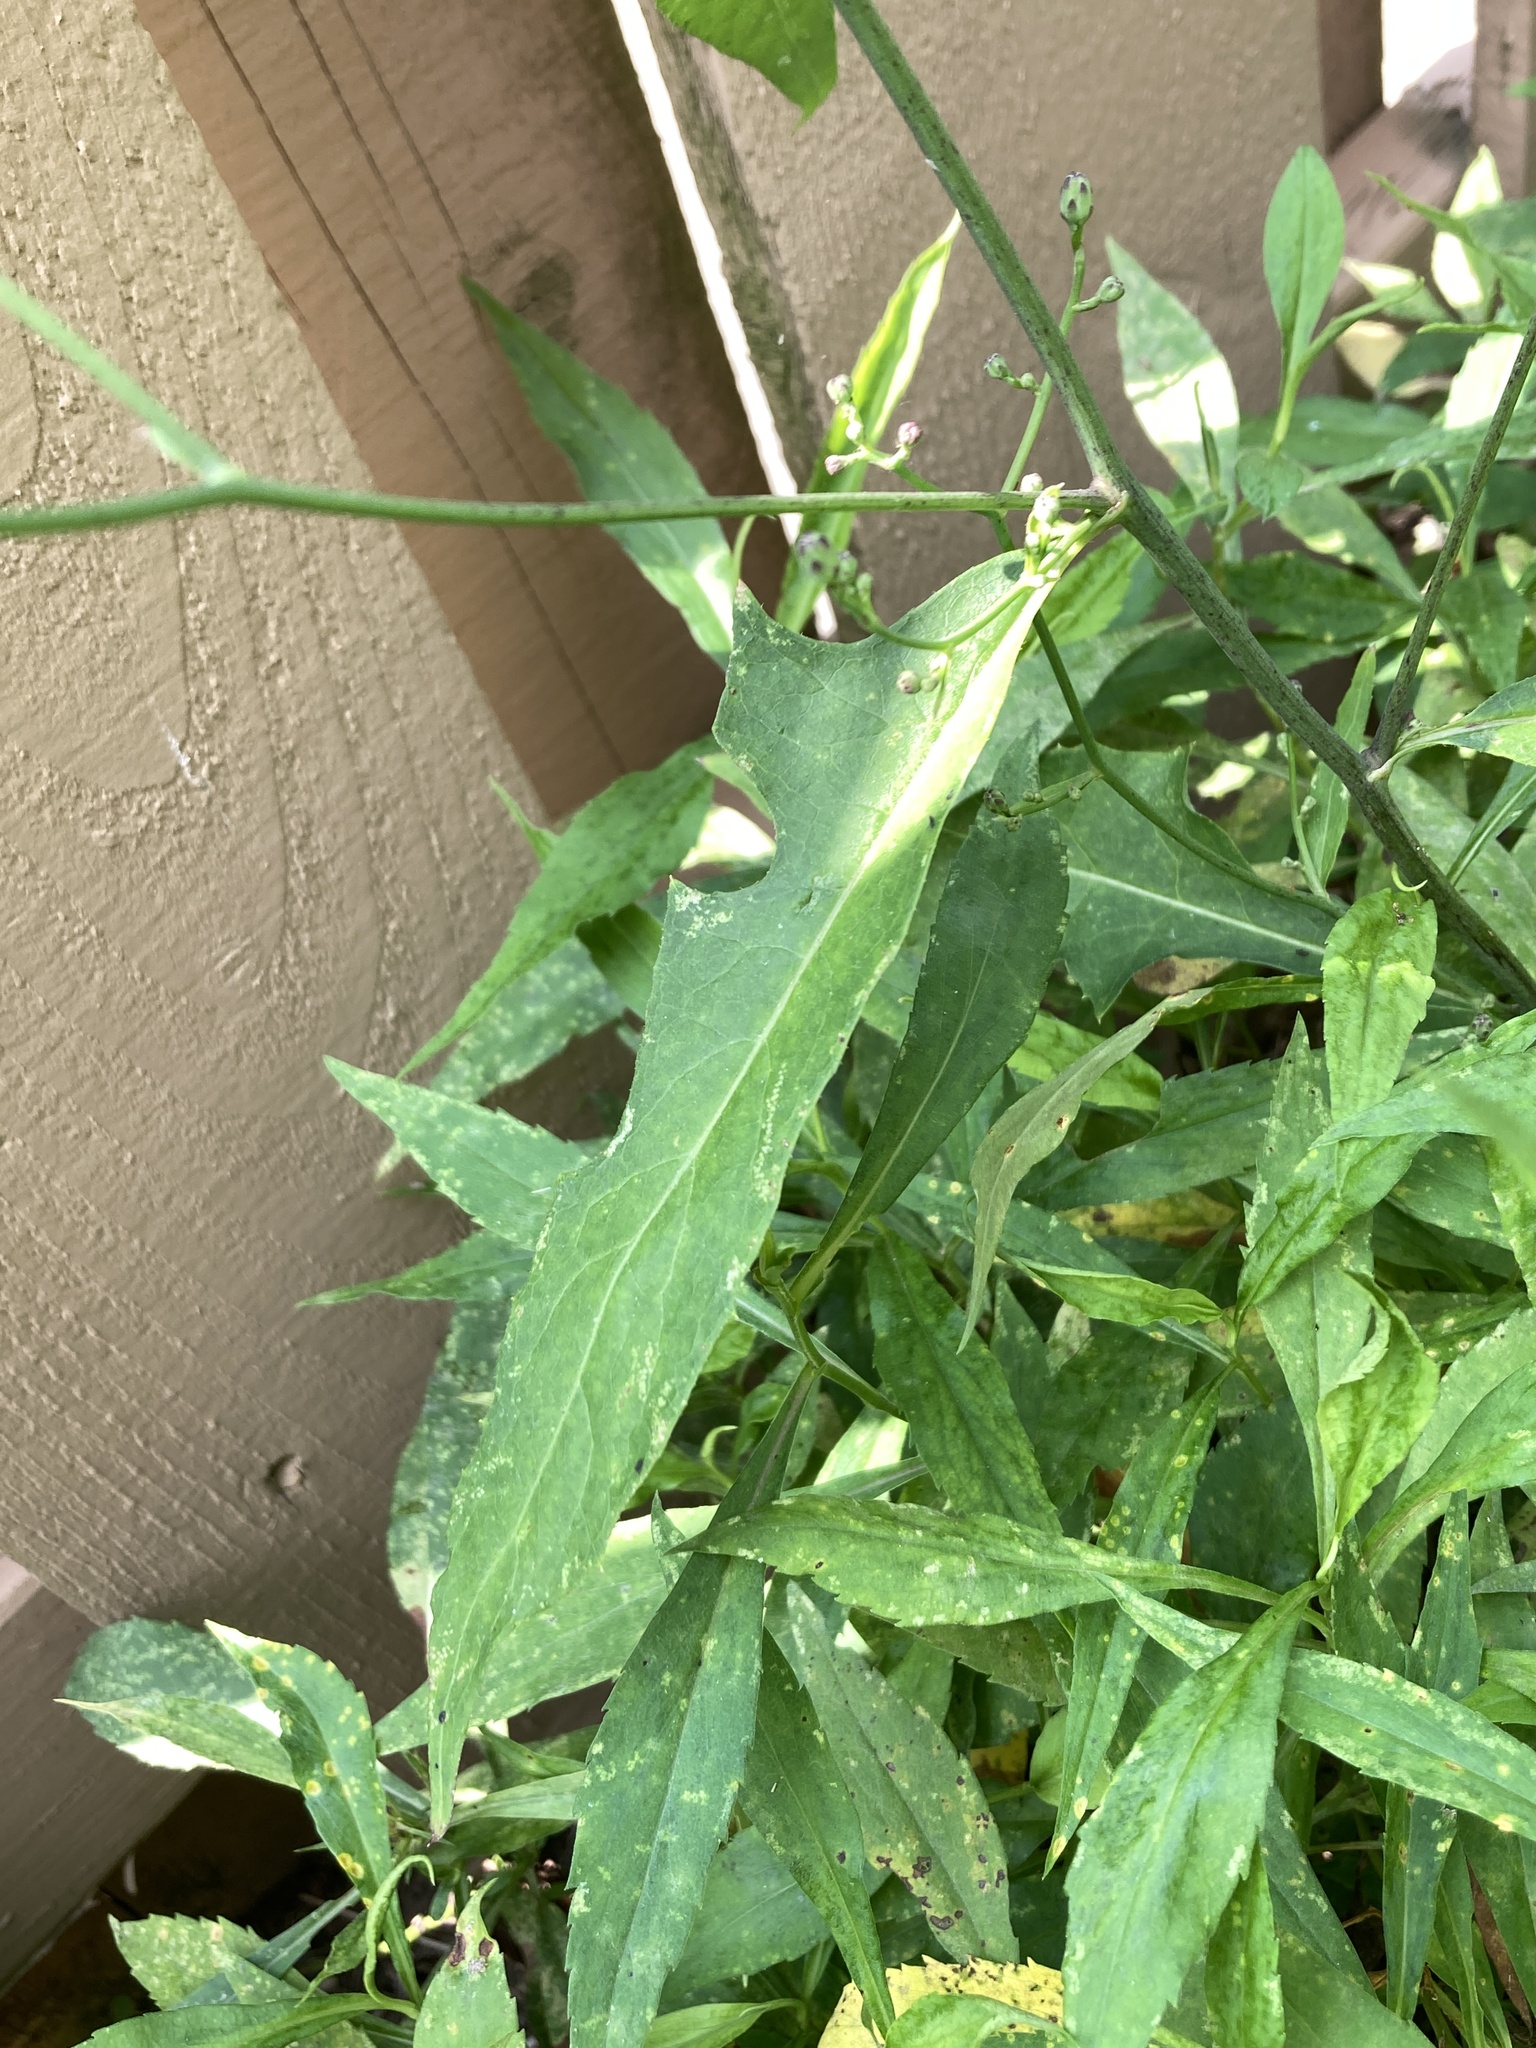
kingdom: Plantae
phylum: Tracheophyta
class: Magnoliopsida
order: Asterales
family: Asteraceae
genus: Lactuca
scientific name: Lactuca floridana
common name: Woodland lettuce
